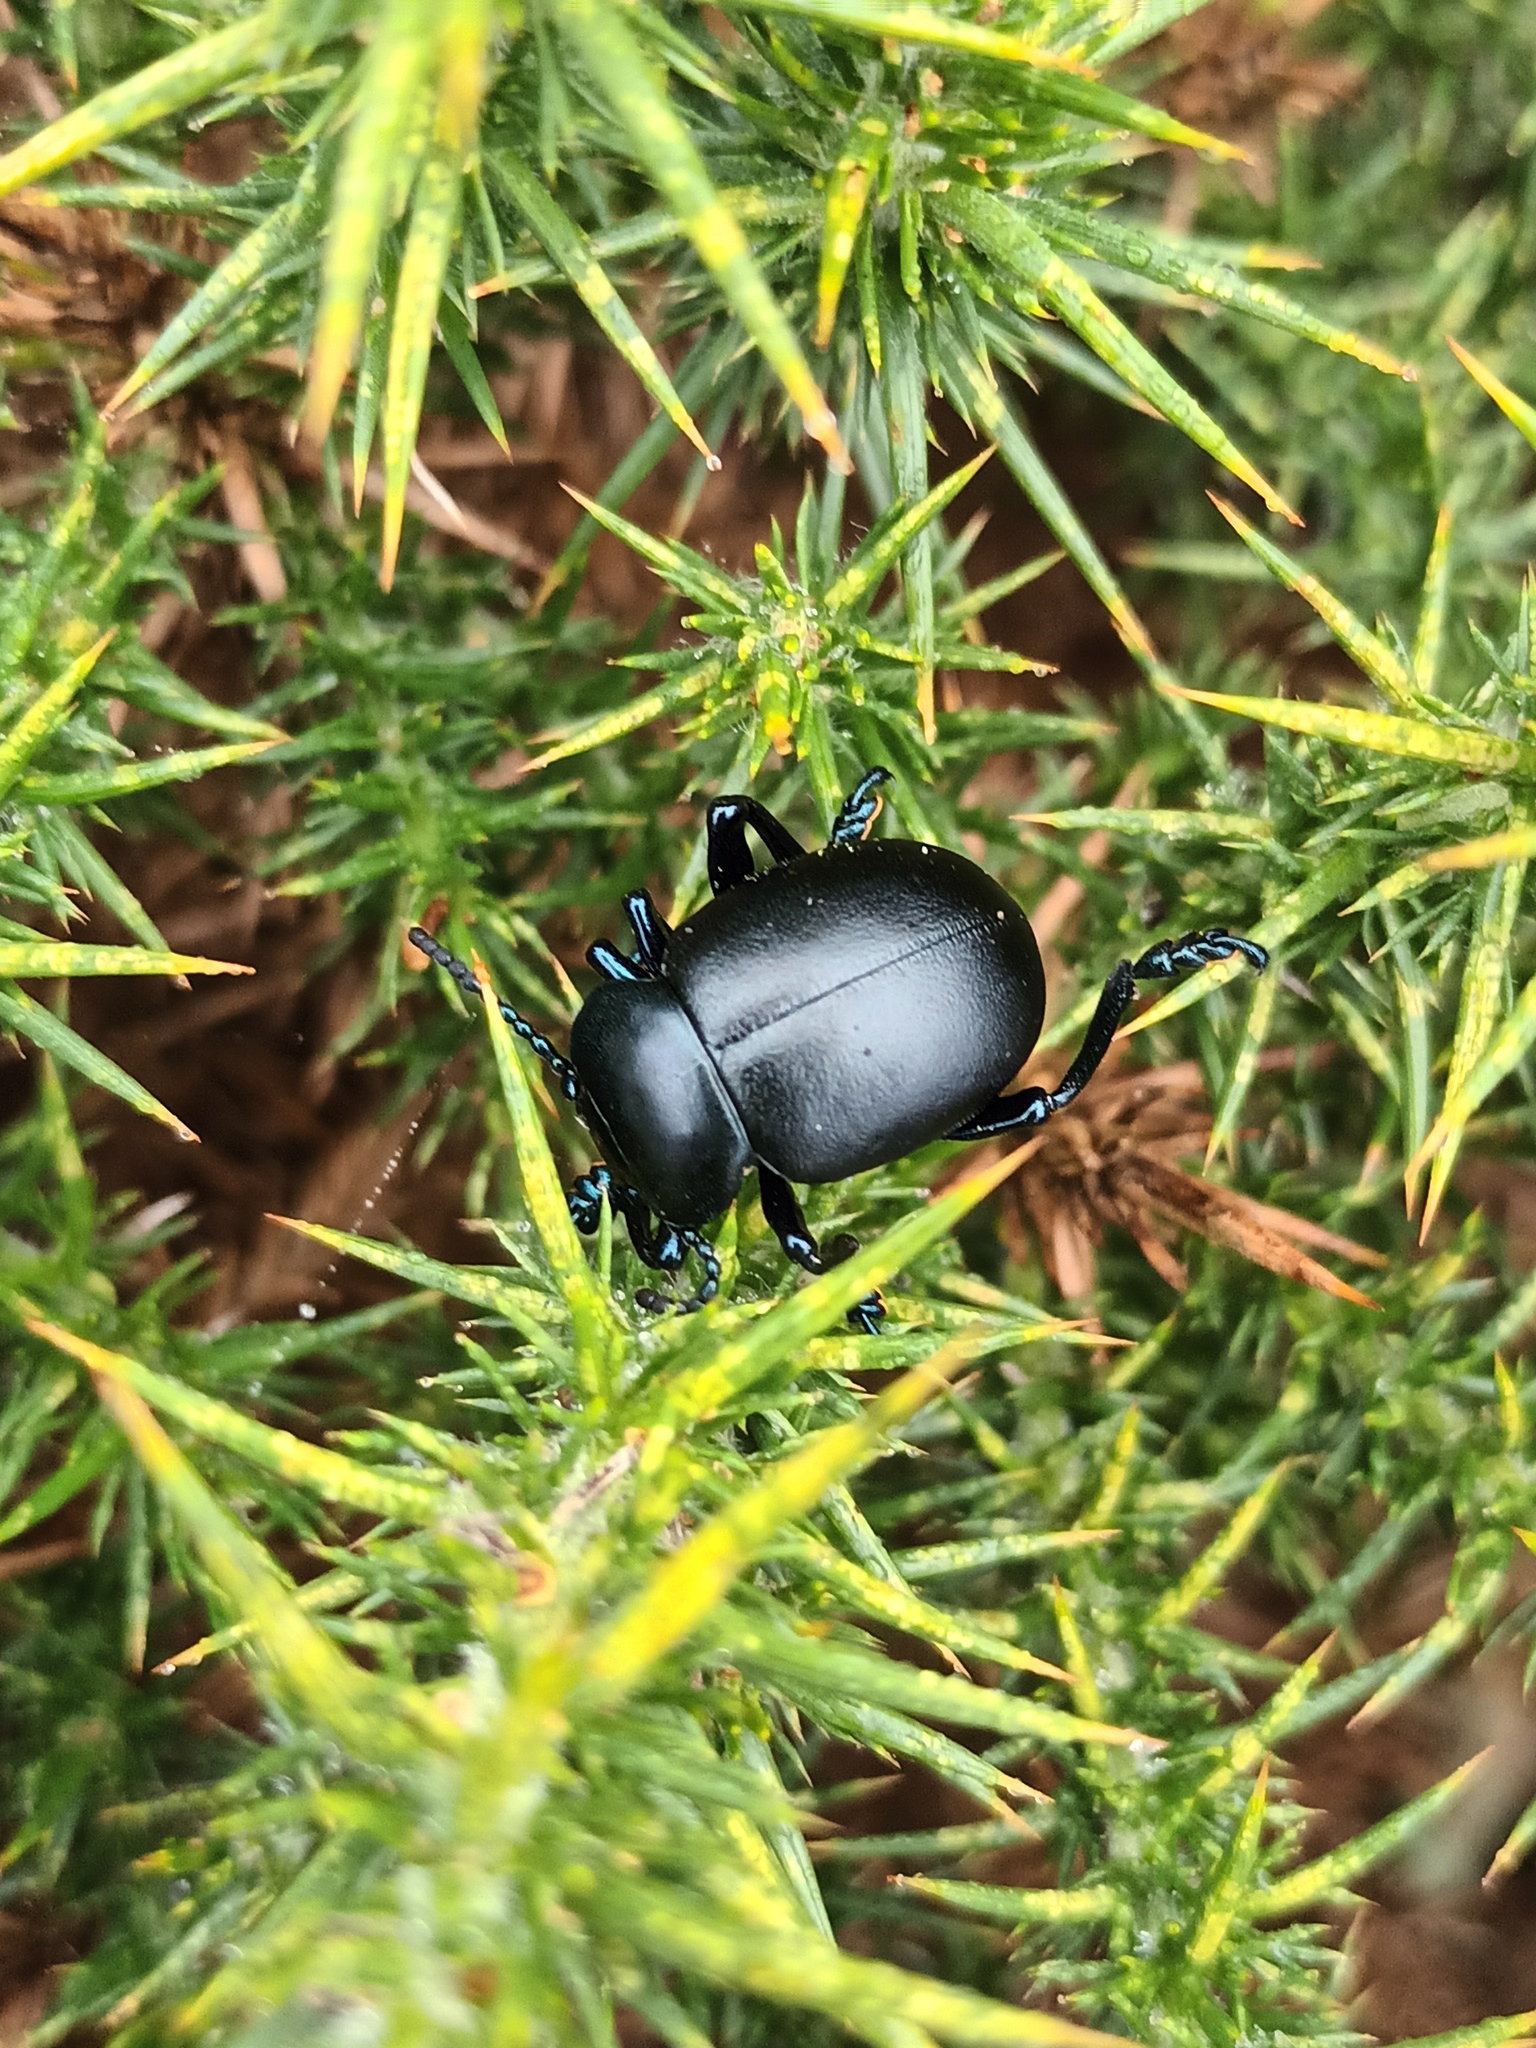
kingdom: Animalia
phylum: Arthropoda
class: Insecta
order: Coleoptera
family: Chrysomelidae
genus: Timarcha
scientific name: Timarcha tenebricosa
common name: Bloody-nosed beetle
